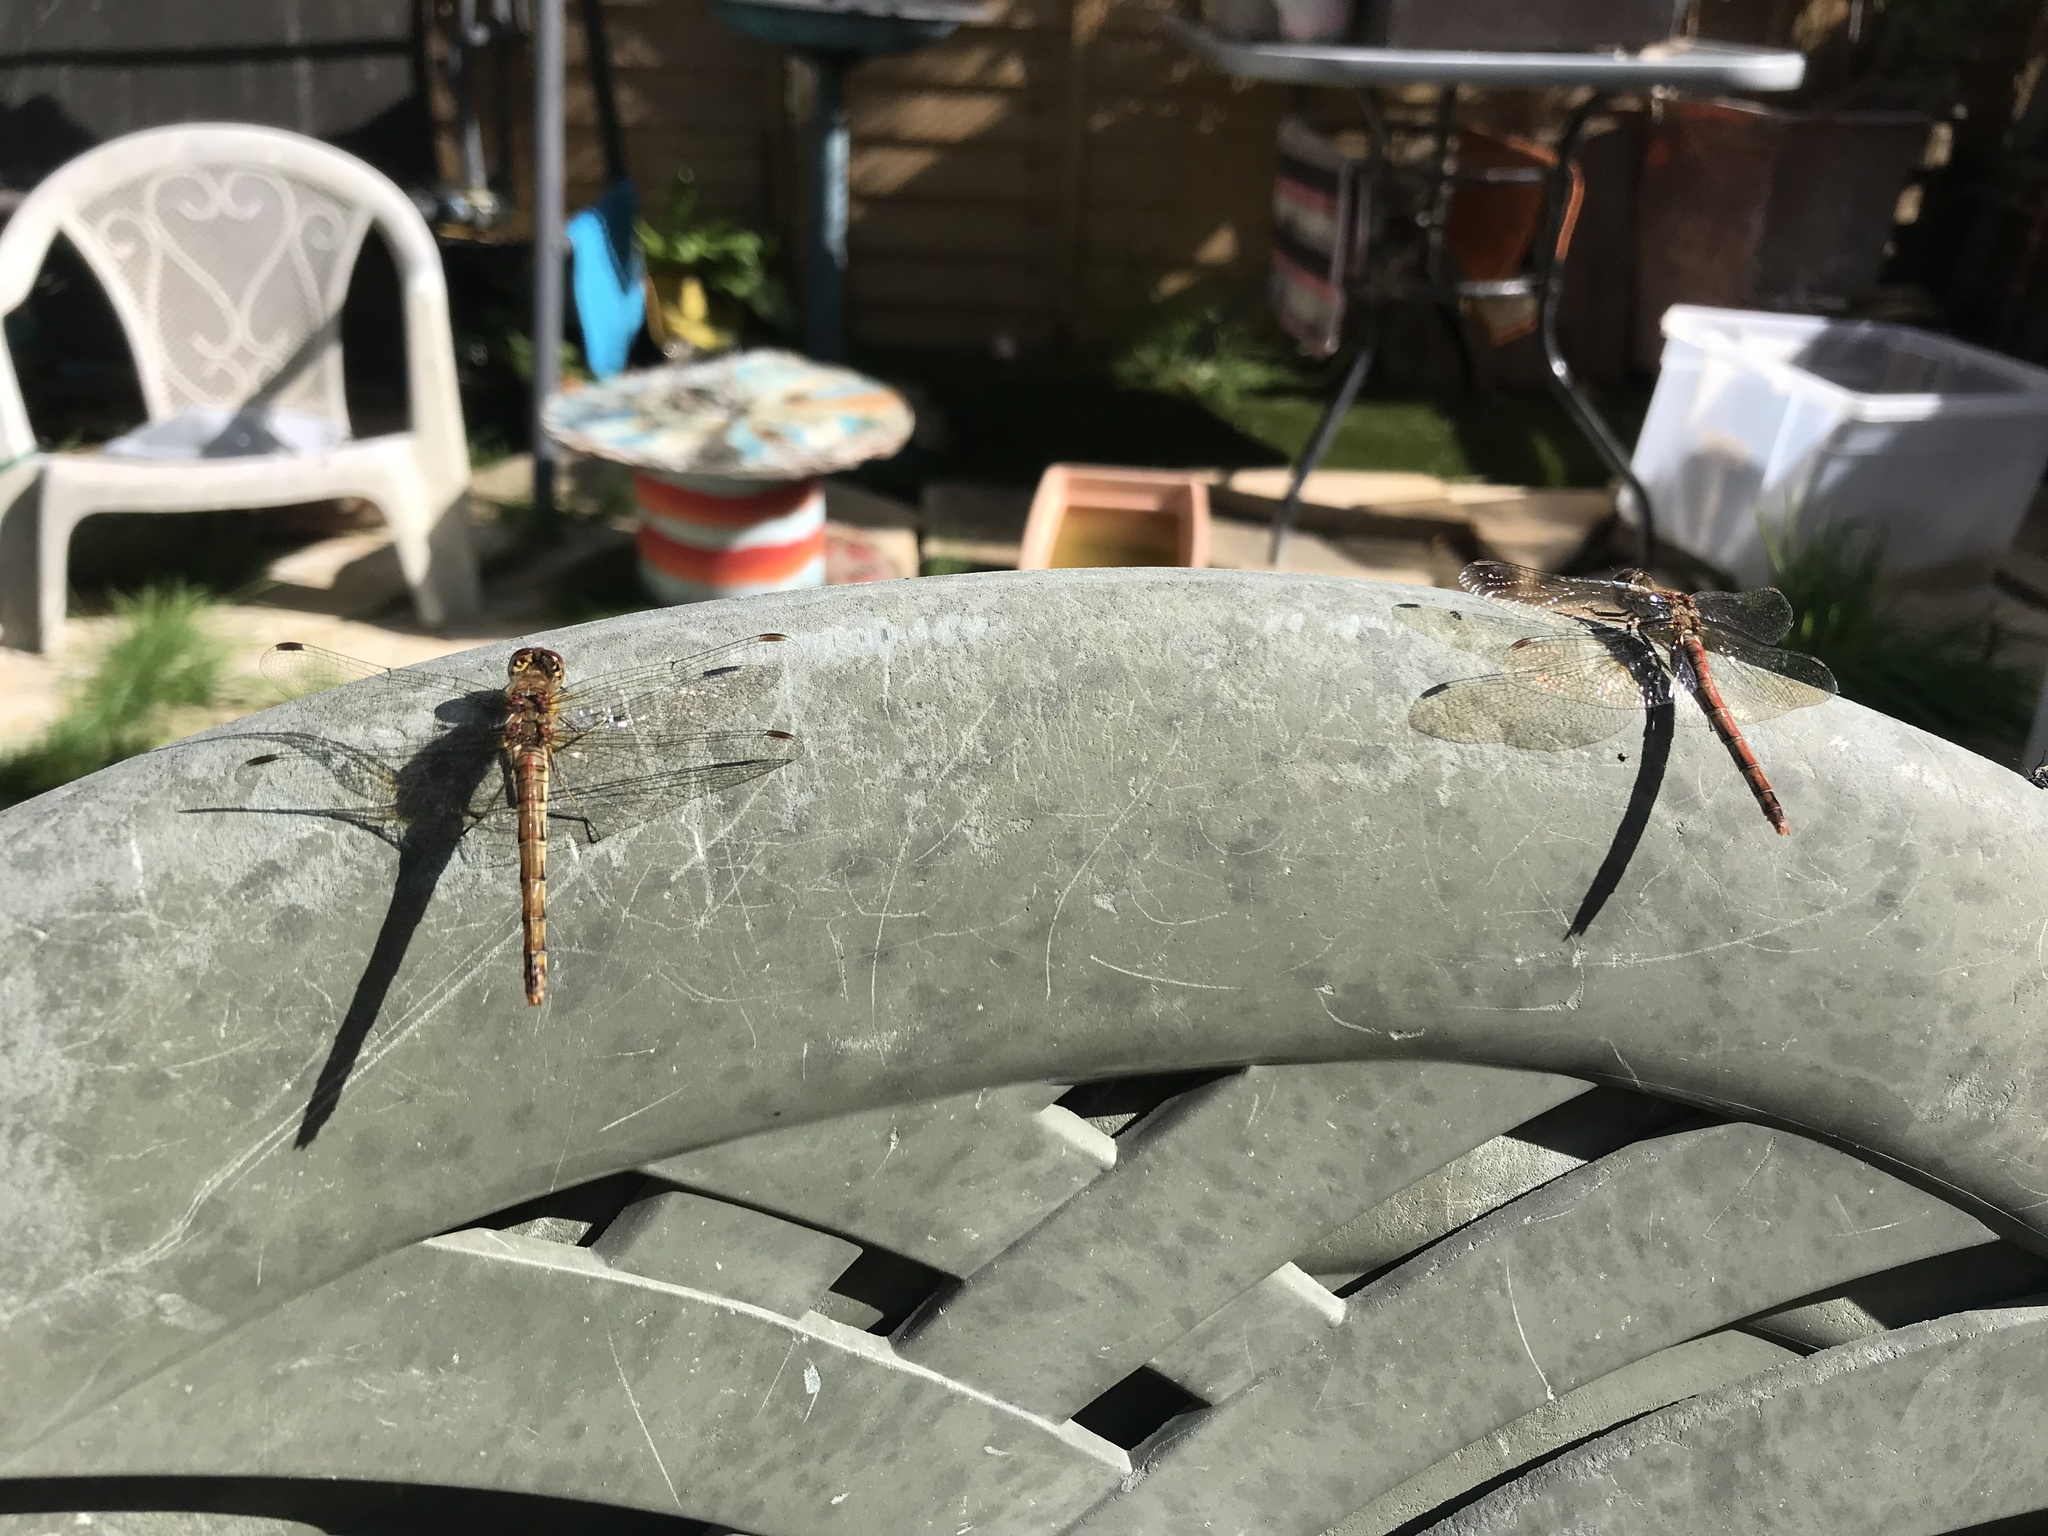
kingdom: Animalia
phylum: Arthropoda
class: Insecta
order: Odonata
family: Libellulidae
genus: Sympetrum
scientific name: Sympetrum striolatum
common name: Common darter
